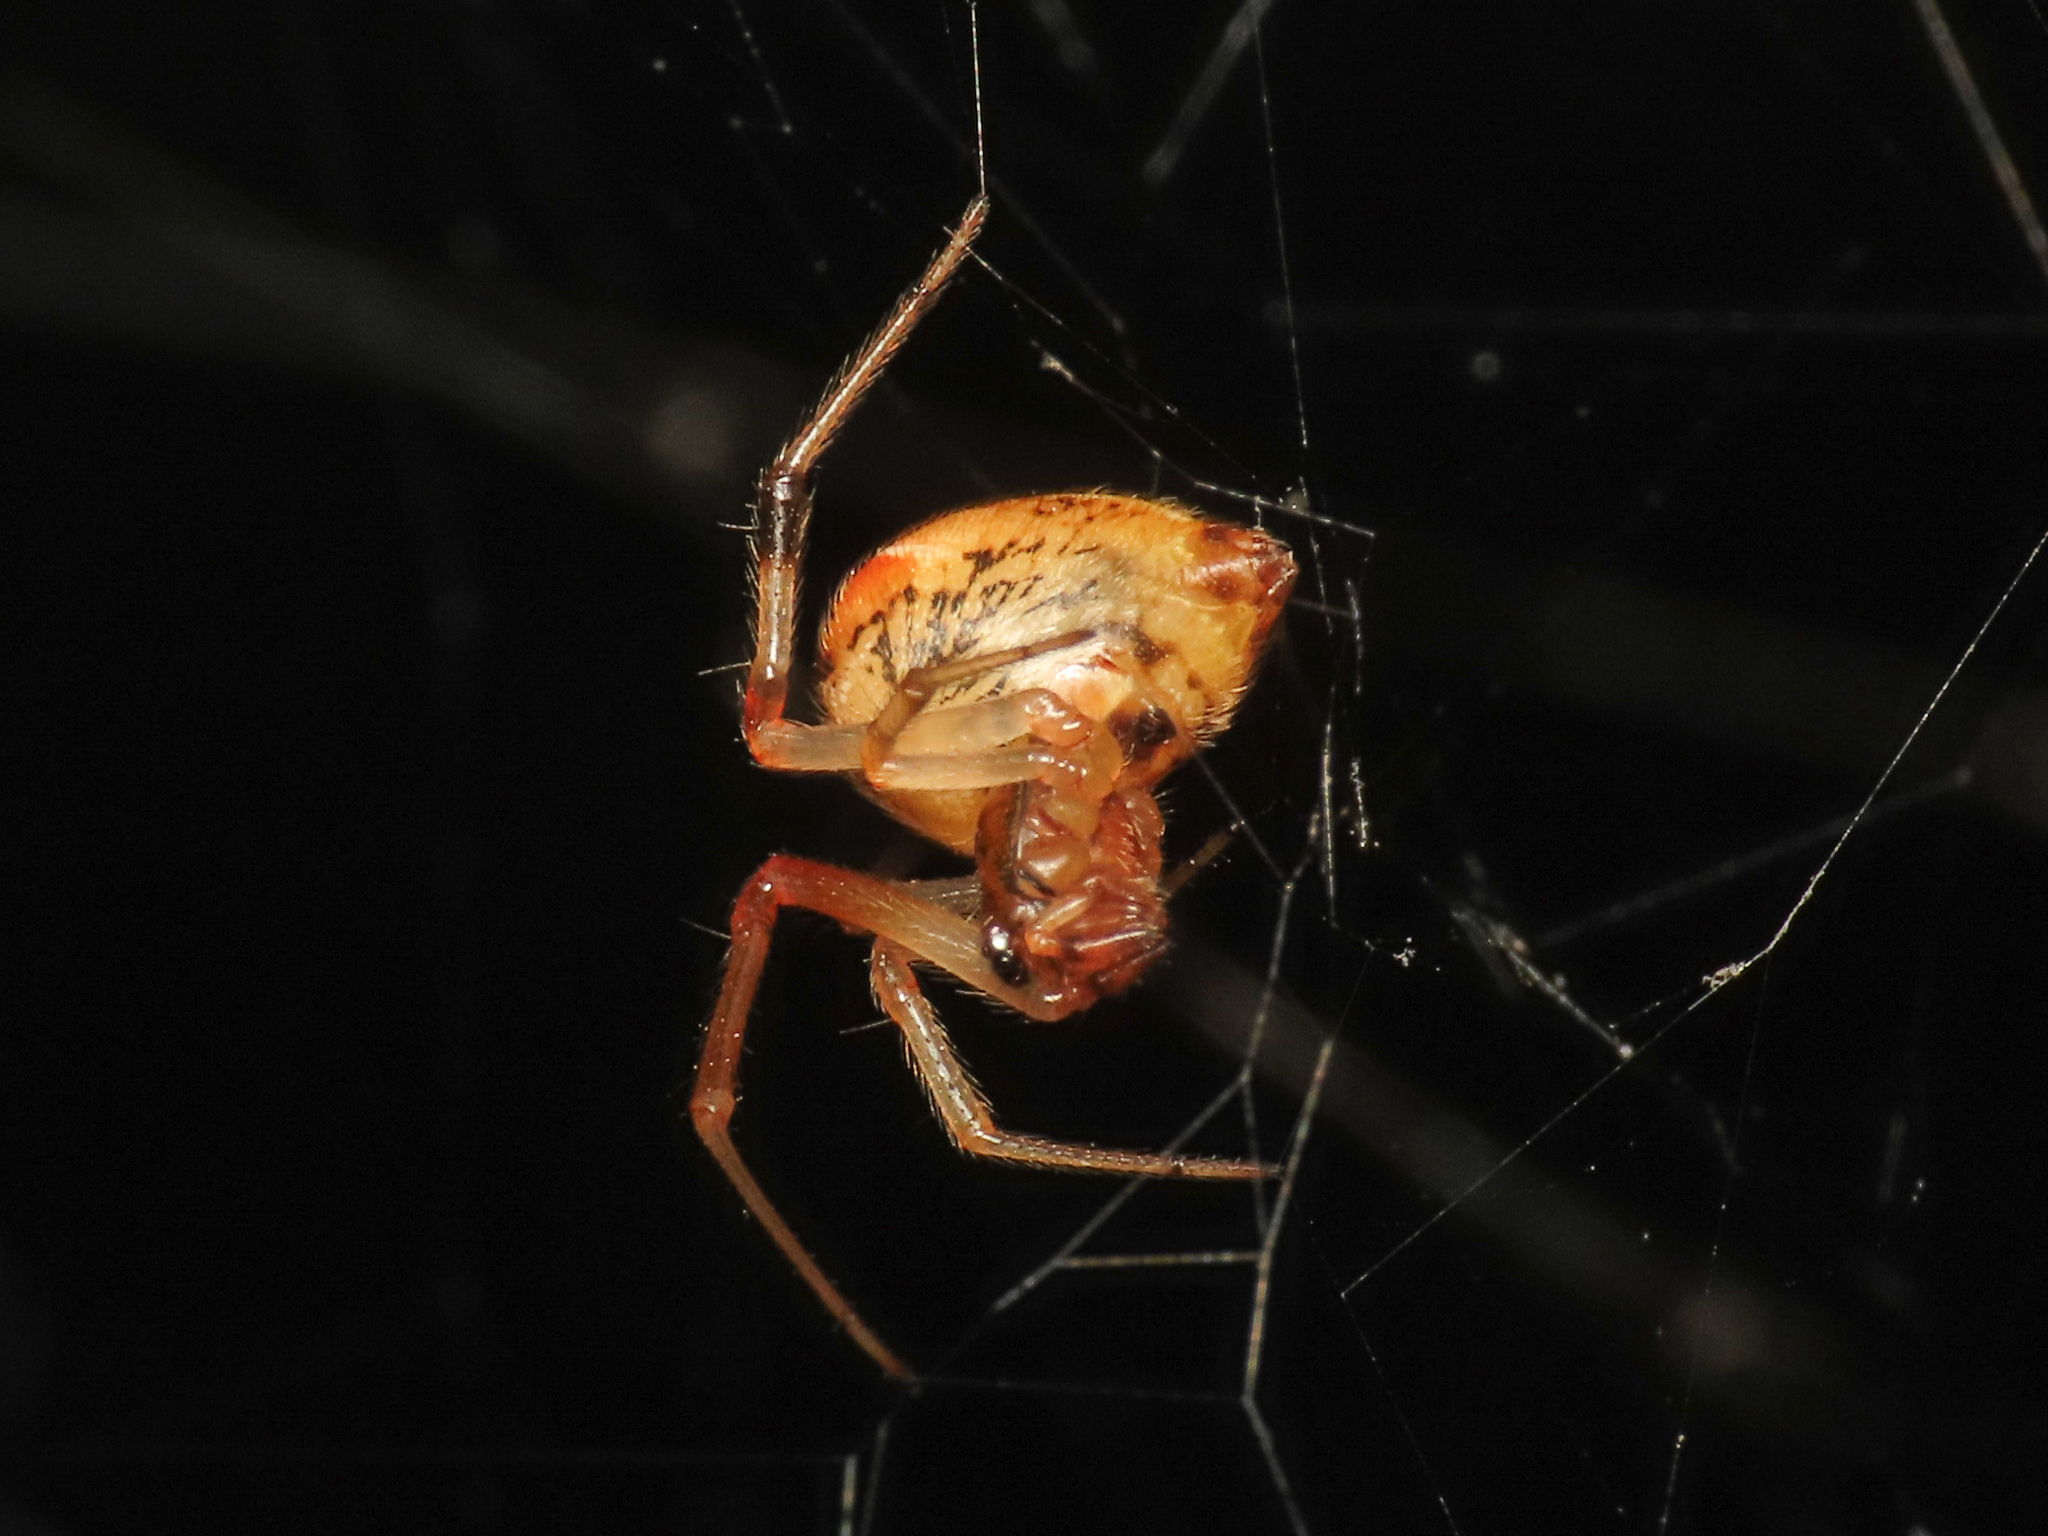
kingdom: Animalia
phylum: Arthropoda
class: Arachnida
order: Araneae
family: Theridiidae
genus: Parasteatoda
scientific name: Parasteatoda lunata
